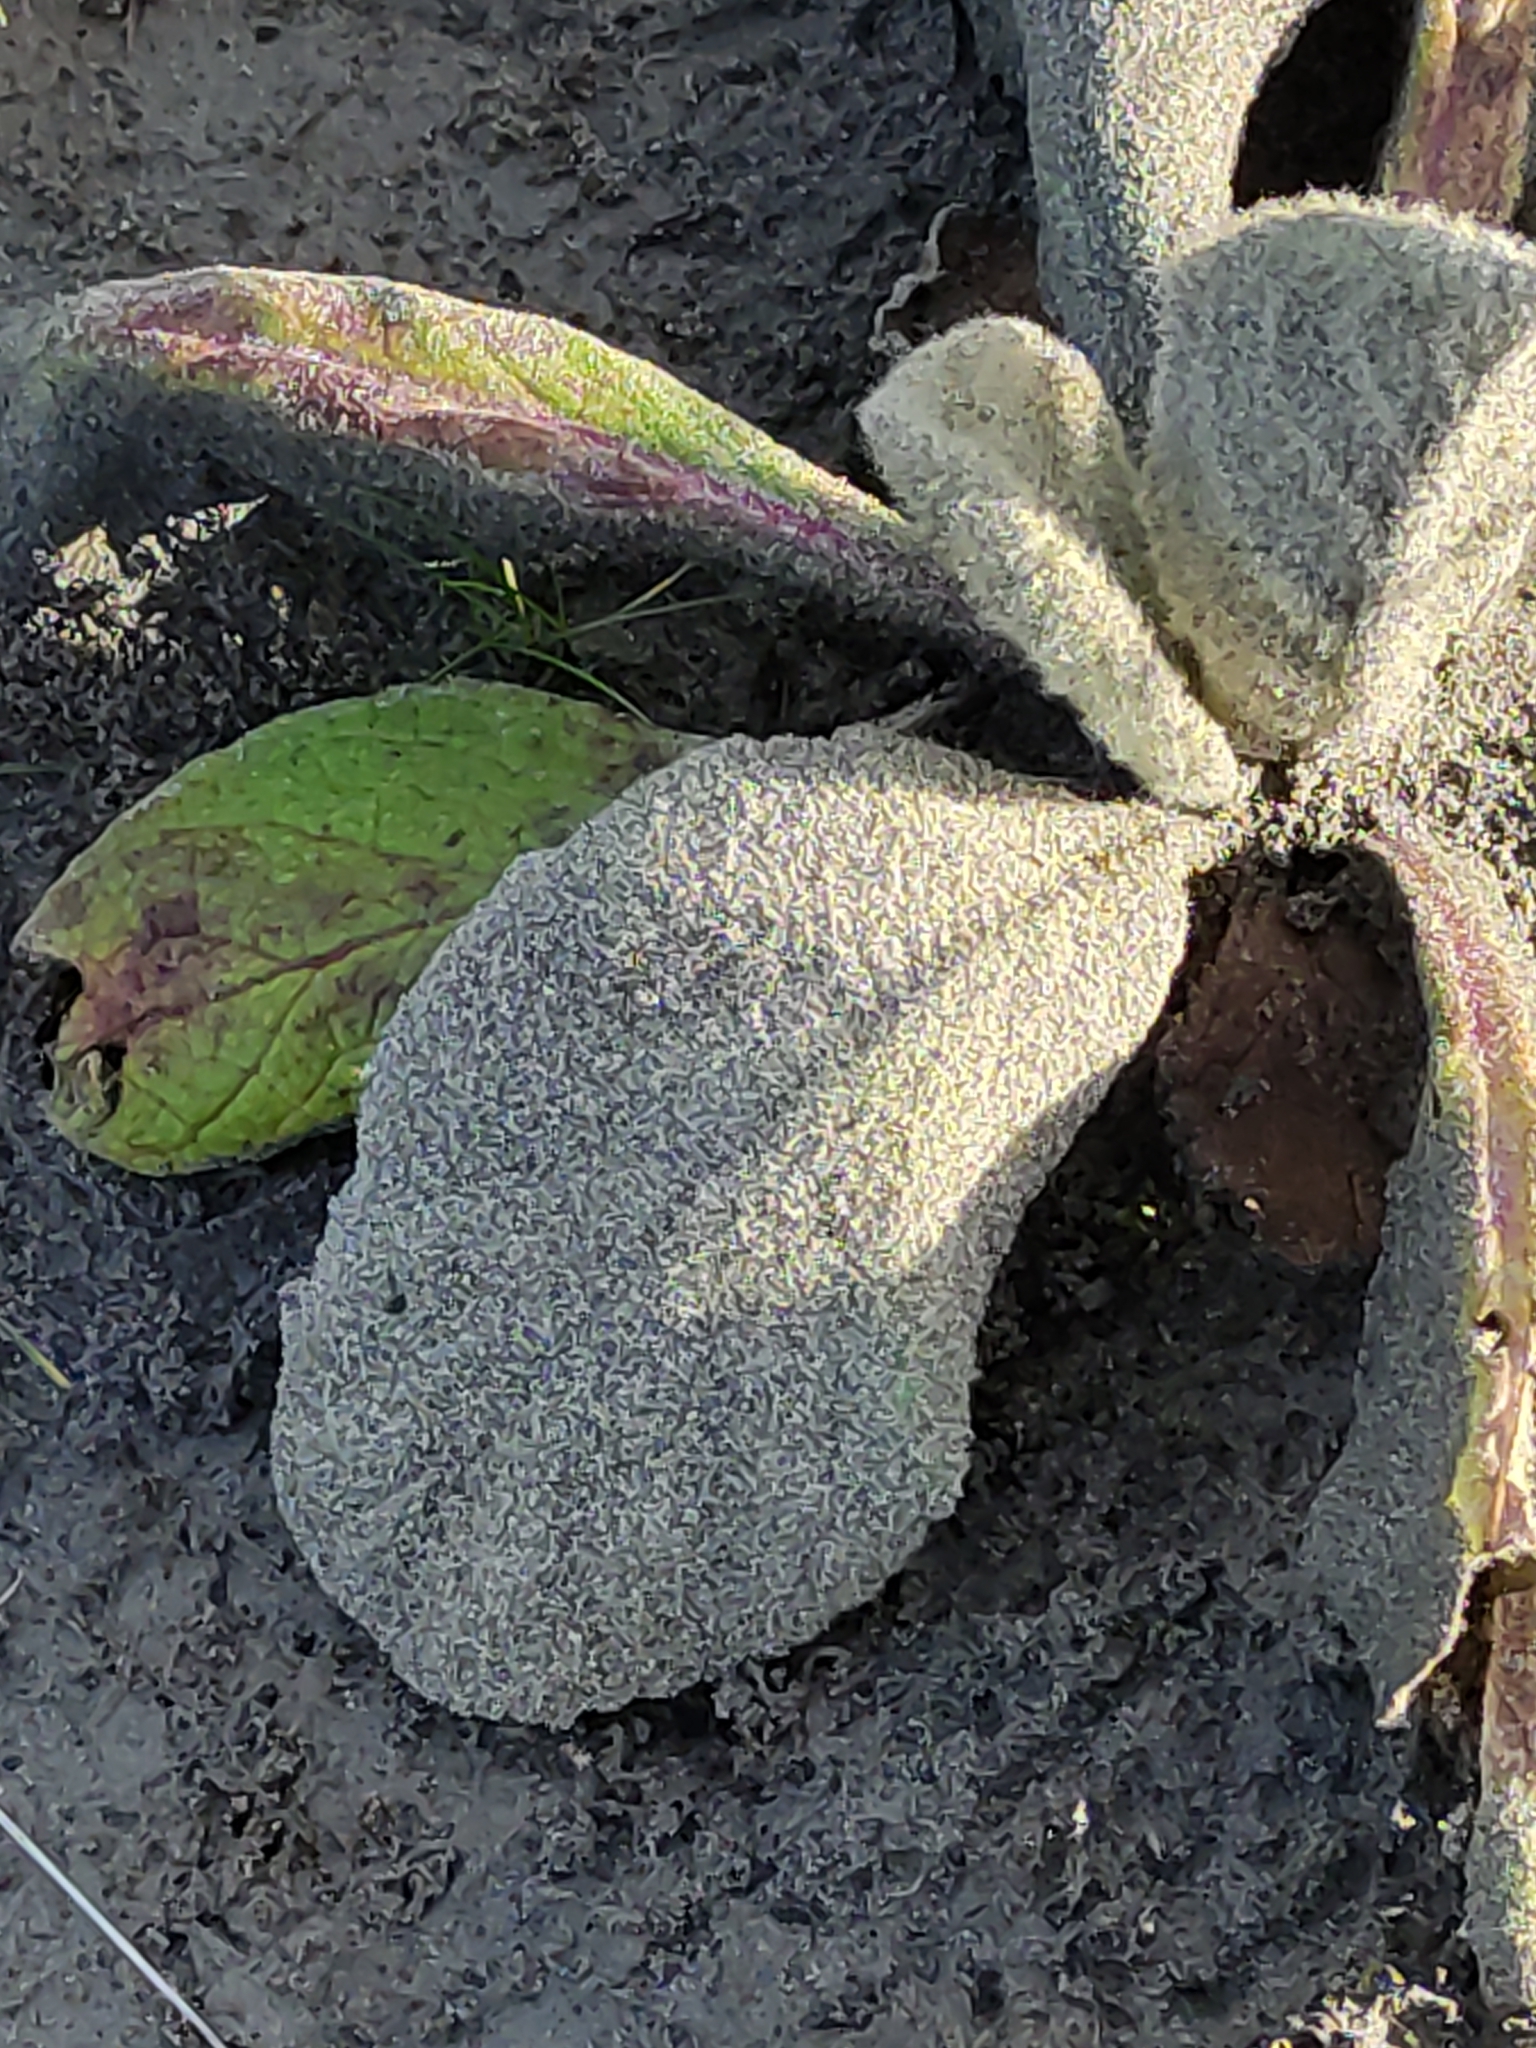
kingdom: Plantae
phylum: Tracheophyta
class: Magnoliopsida
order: Lamiales
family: Scrophulariaceae
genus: Verbascum
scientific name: Verbascum thapsus
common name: Common mullein
